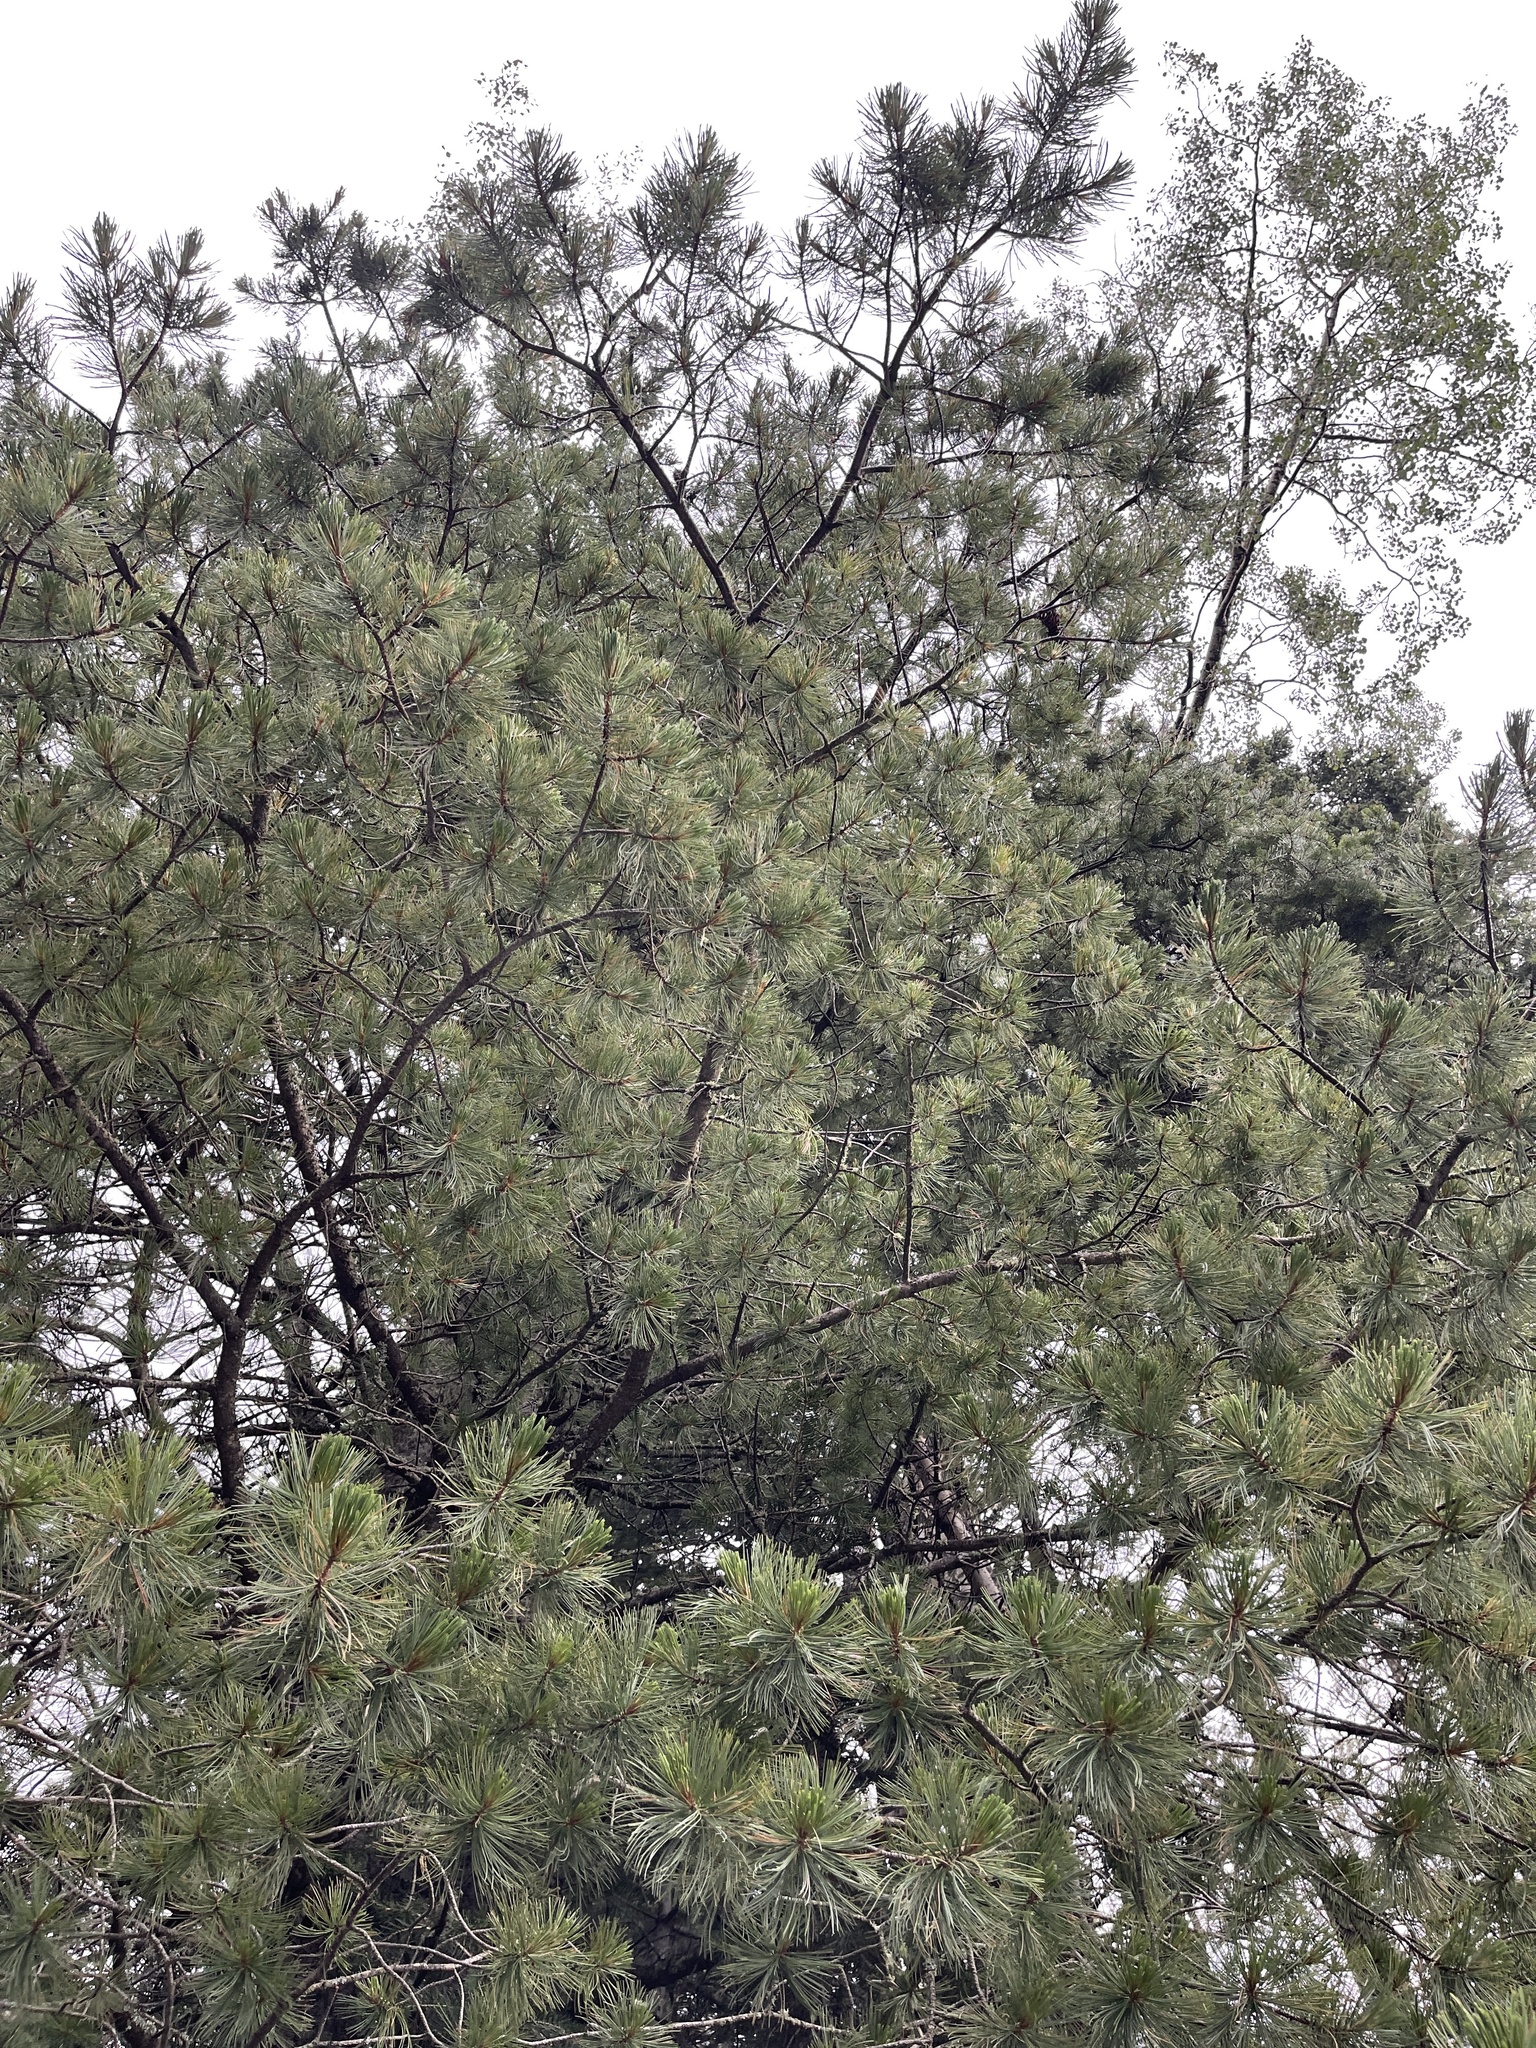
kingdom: Plantae
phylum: Tracheophyta
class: Pinopsida
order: Pinales
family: Pinaceae
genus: Pinus
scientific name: Pinus strobiformis
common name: Southwestern white pine
